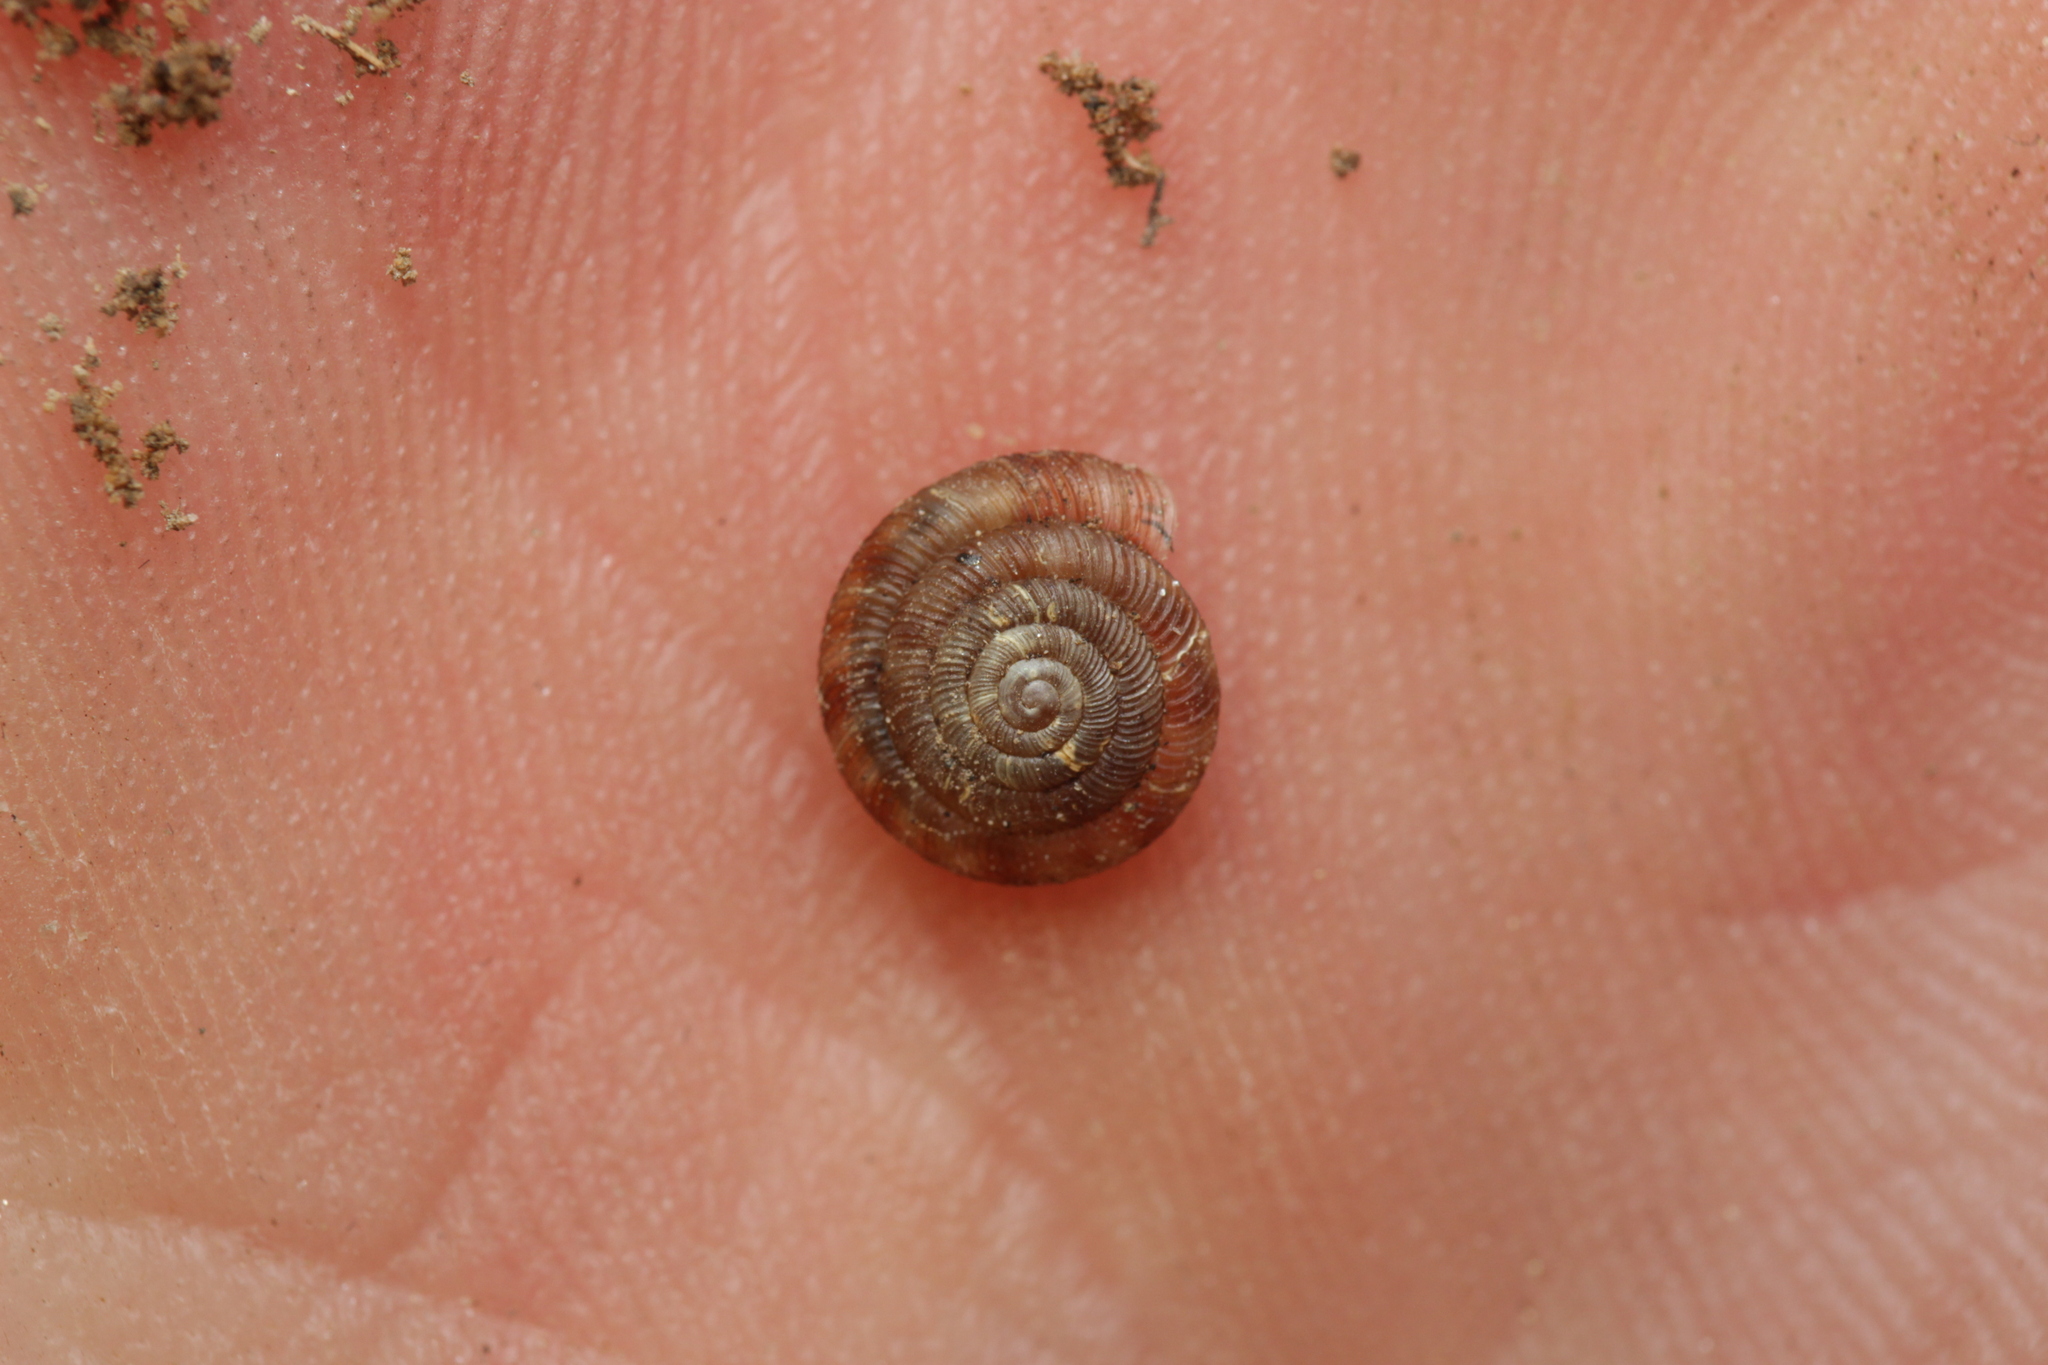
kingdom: Animalia
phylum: Mollusca
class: Gastropoda
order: Stylommatophora
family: Discidae
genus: Discus
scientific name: Discus rotundatus
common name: Rounded snail
